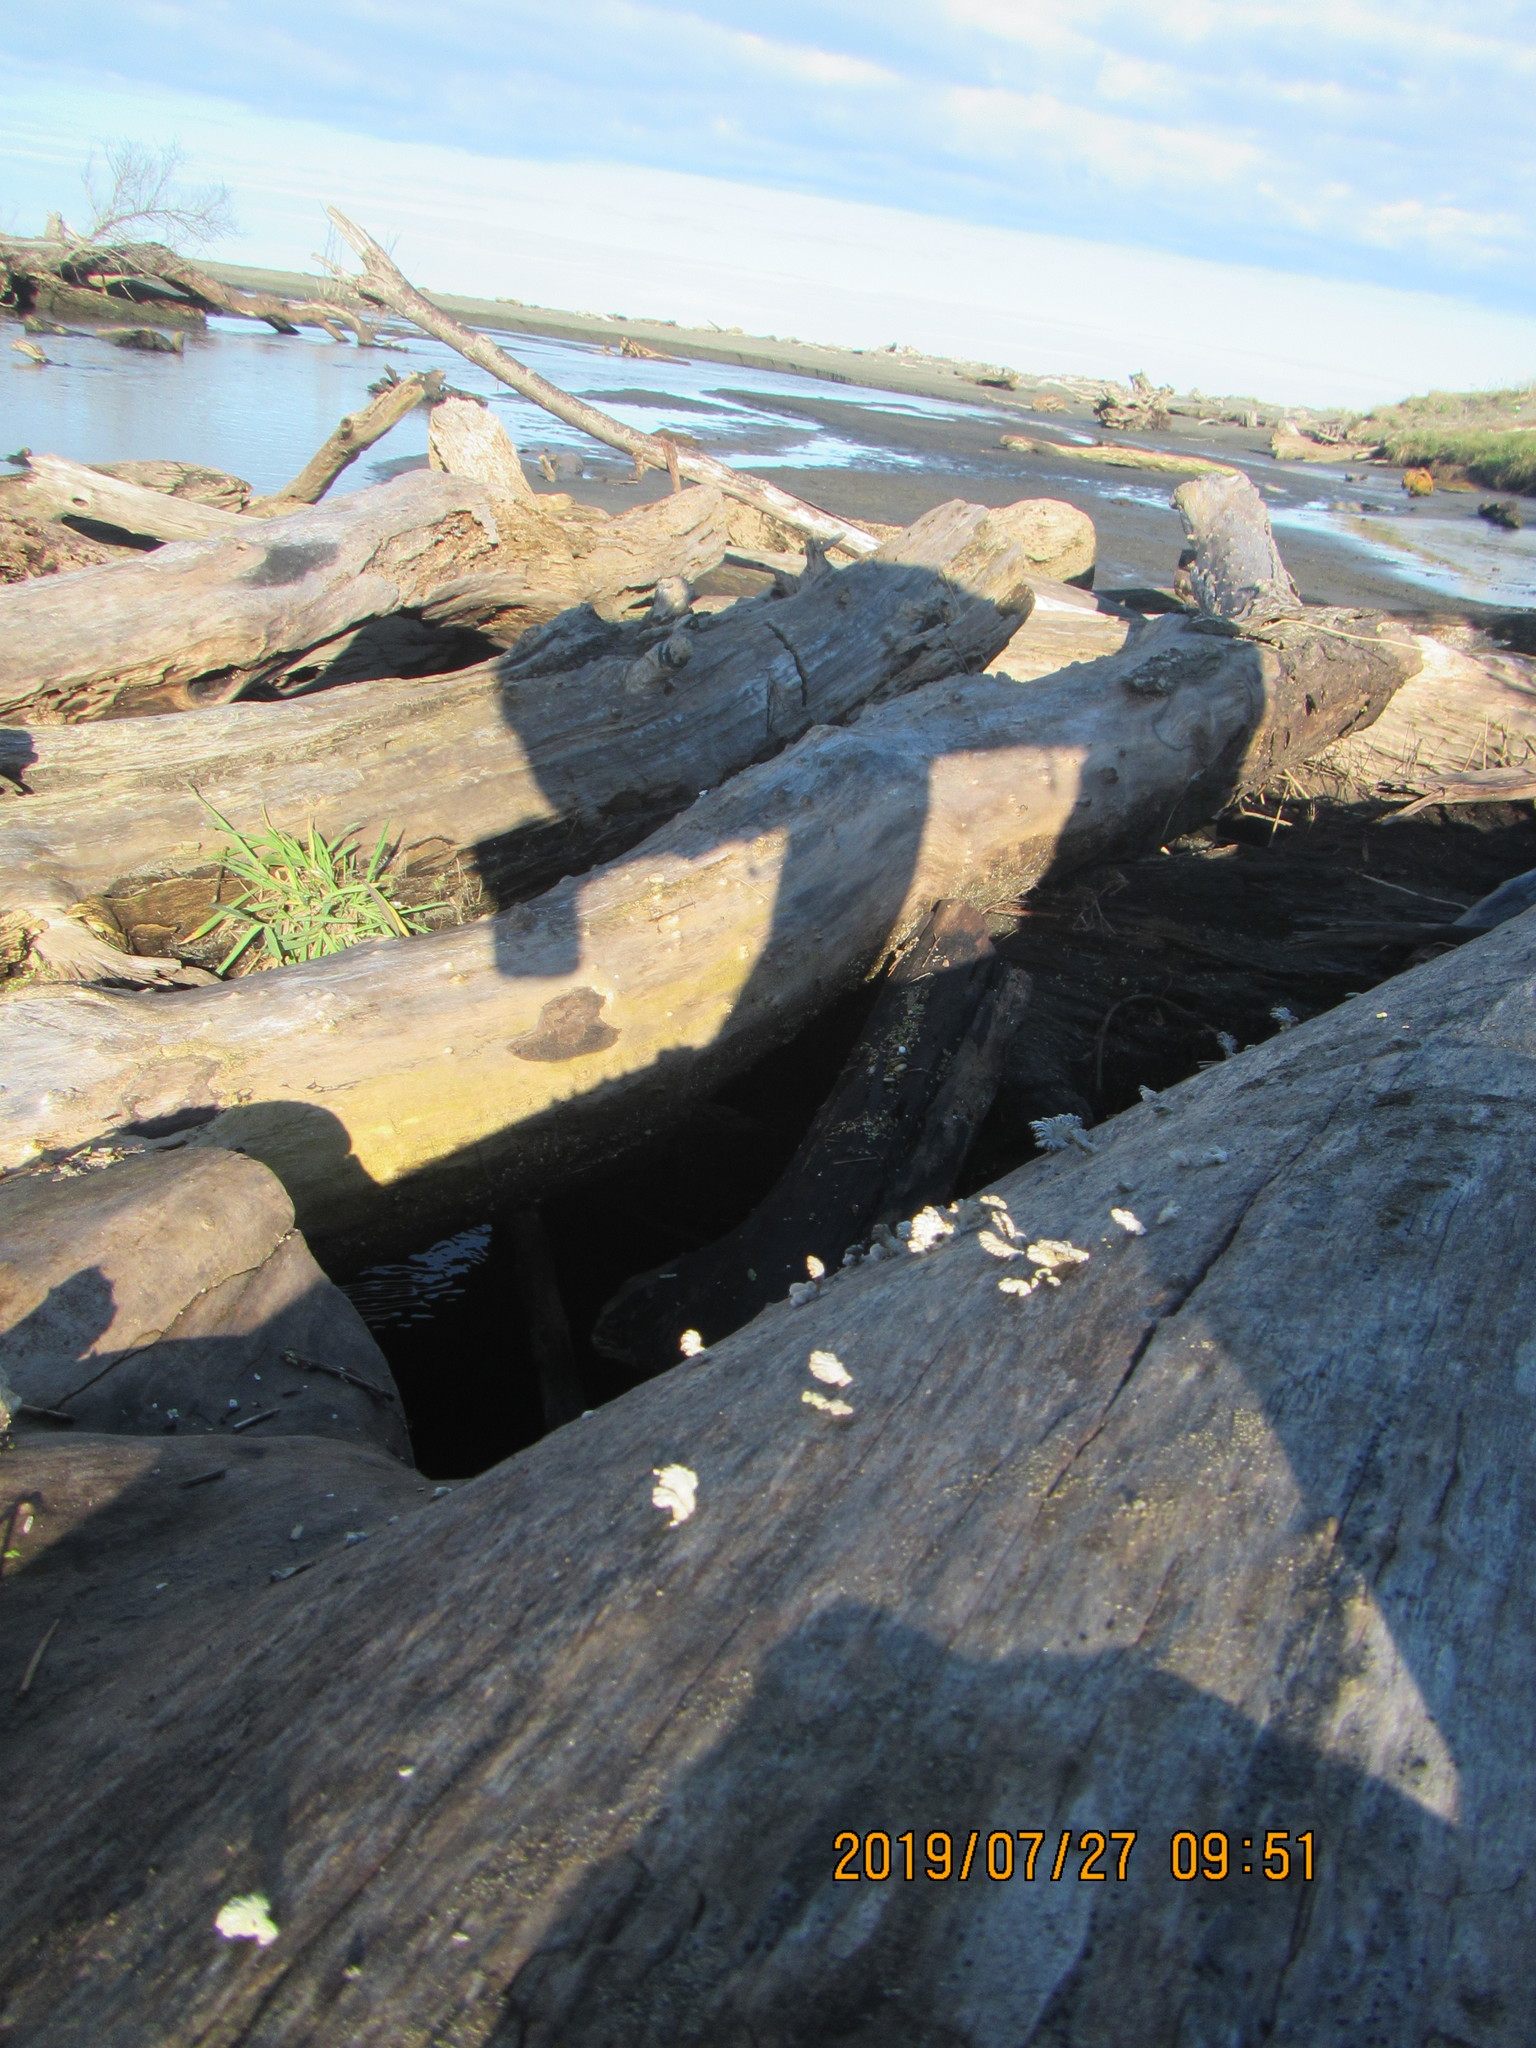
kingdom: Fungi
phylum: Basidiomycota
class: Agaricomycetes
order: Agaricales
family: Schizophyllaceae
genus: Schizophyllum
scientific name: Schizophyllum commune
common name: Common porecrust
